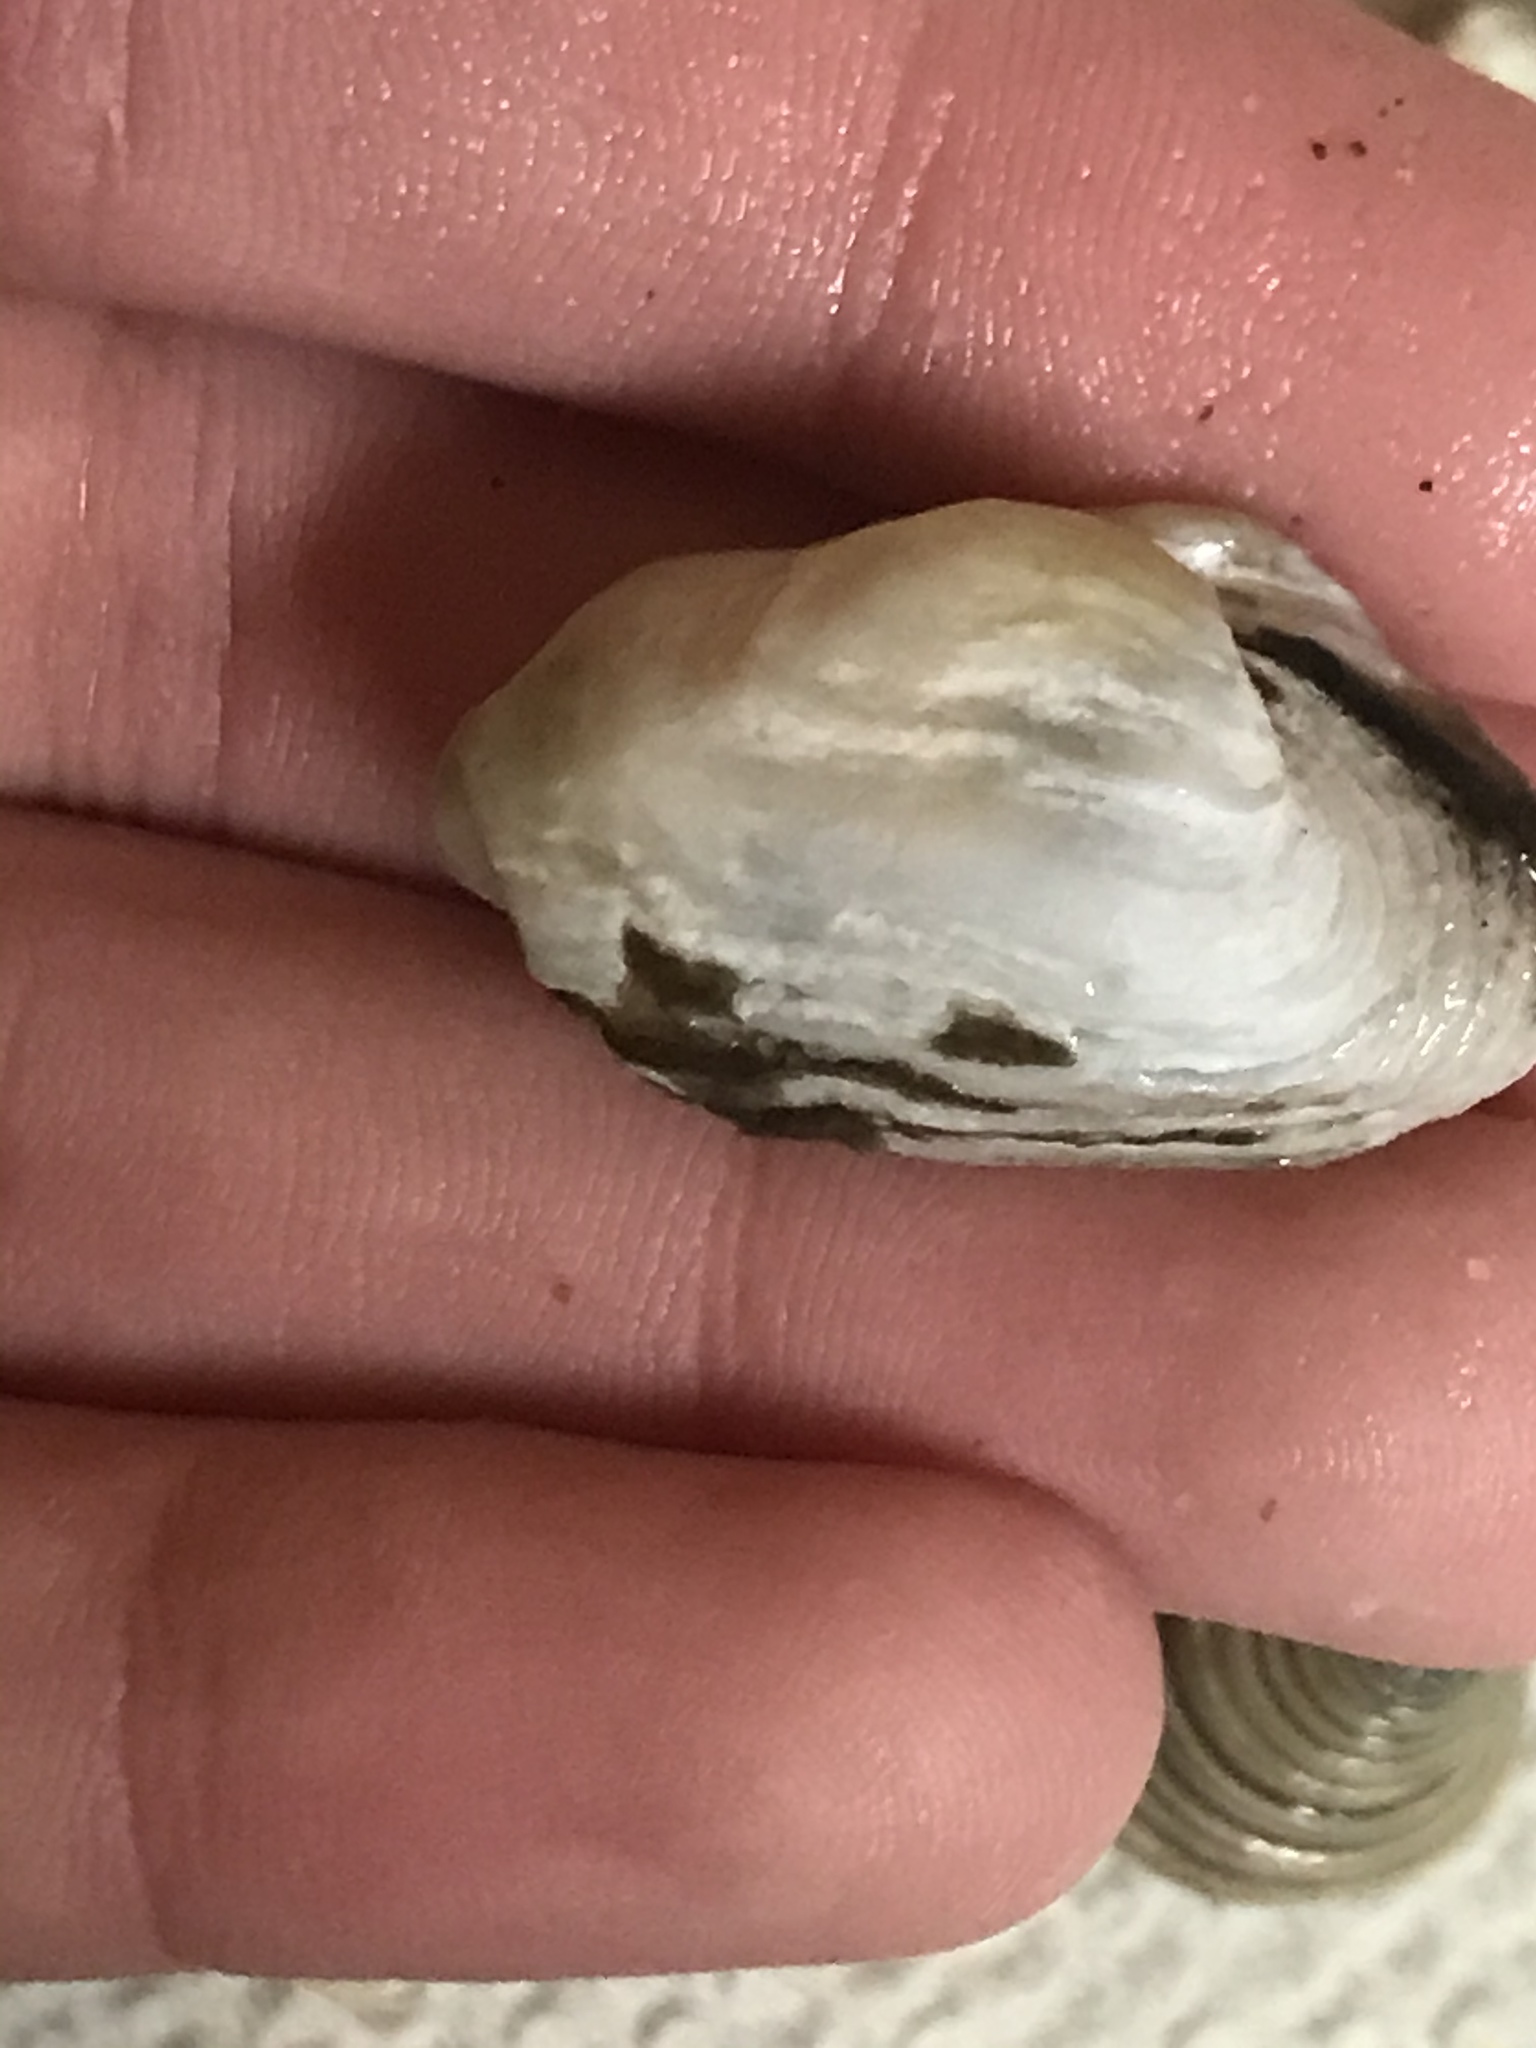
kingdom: Animalia
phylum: Mollusca
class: Bivalvia
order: Adapedonta
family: Hiatellidae
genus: Hiatella
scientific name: Hiatella arctica
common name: Arctic hiatella
